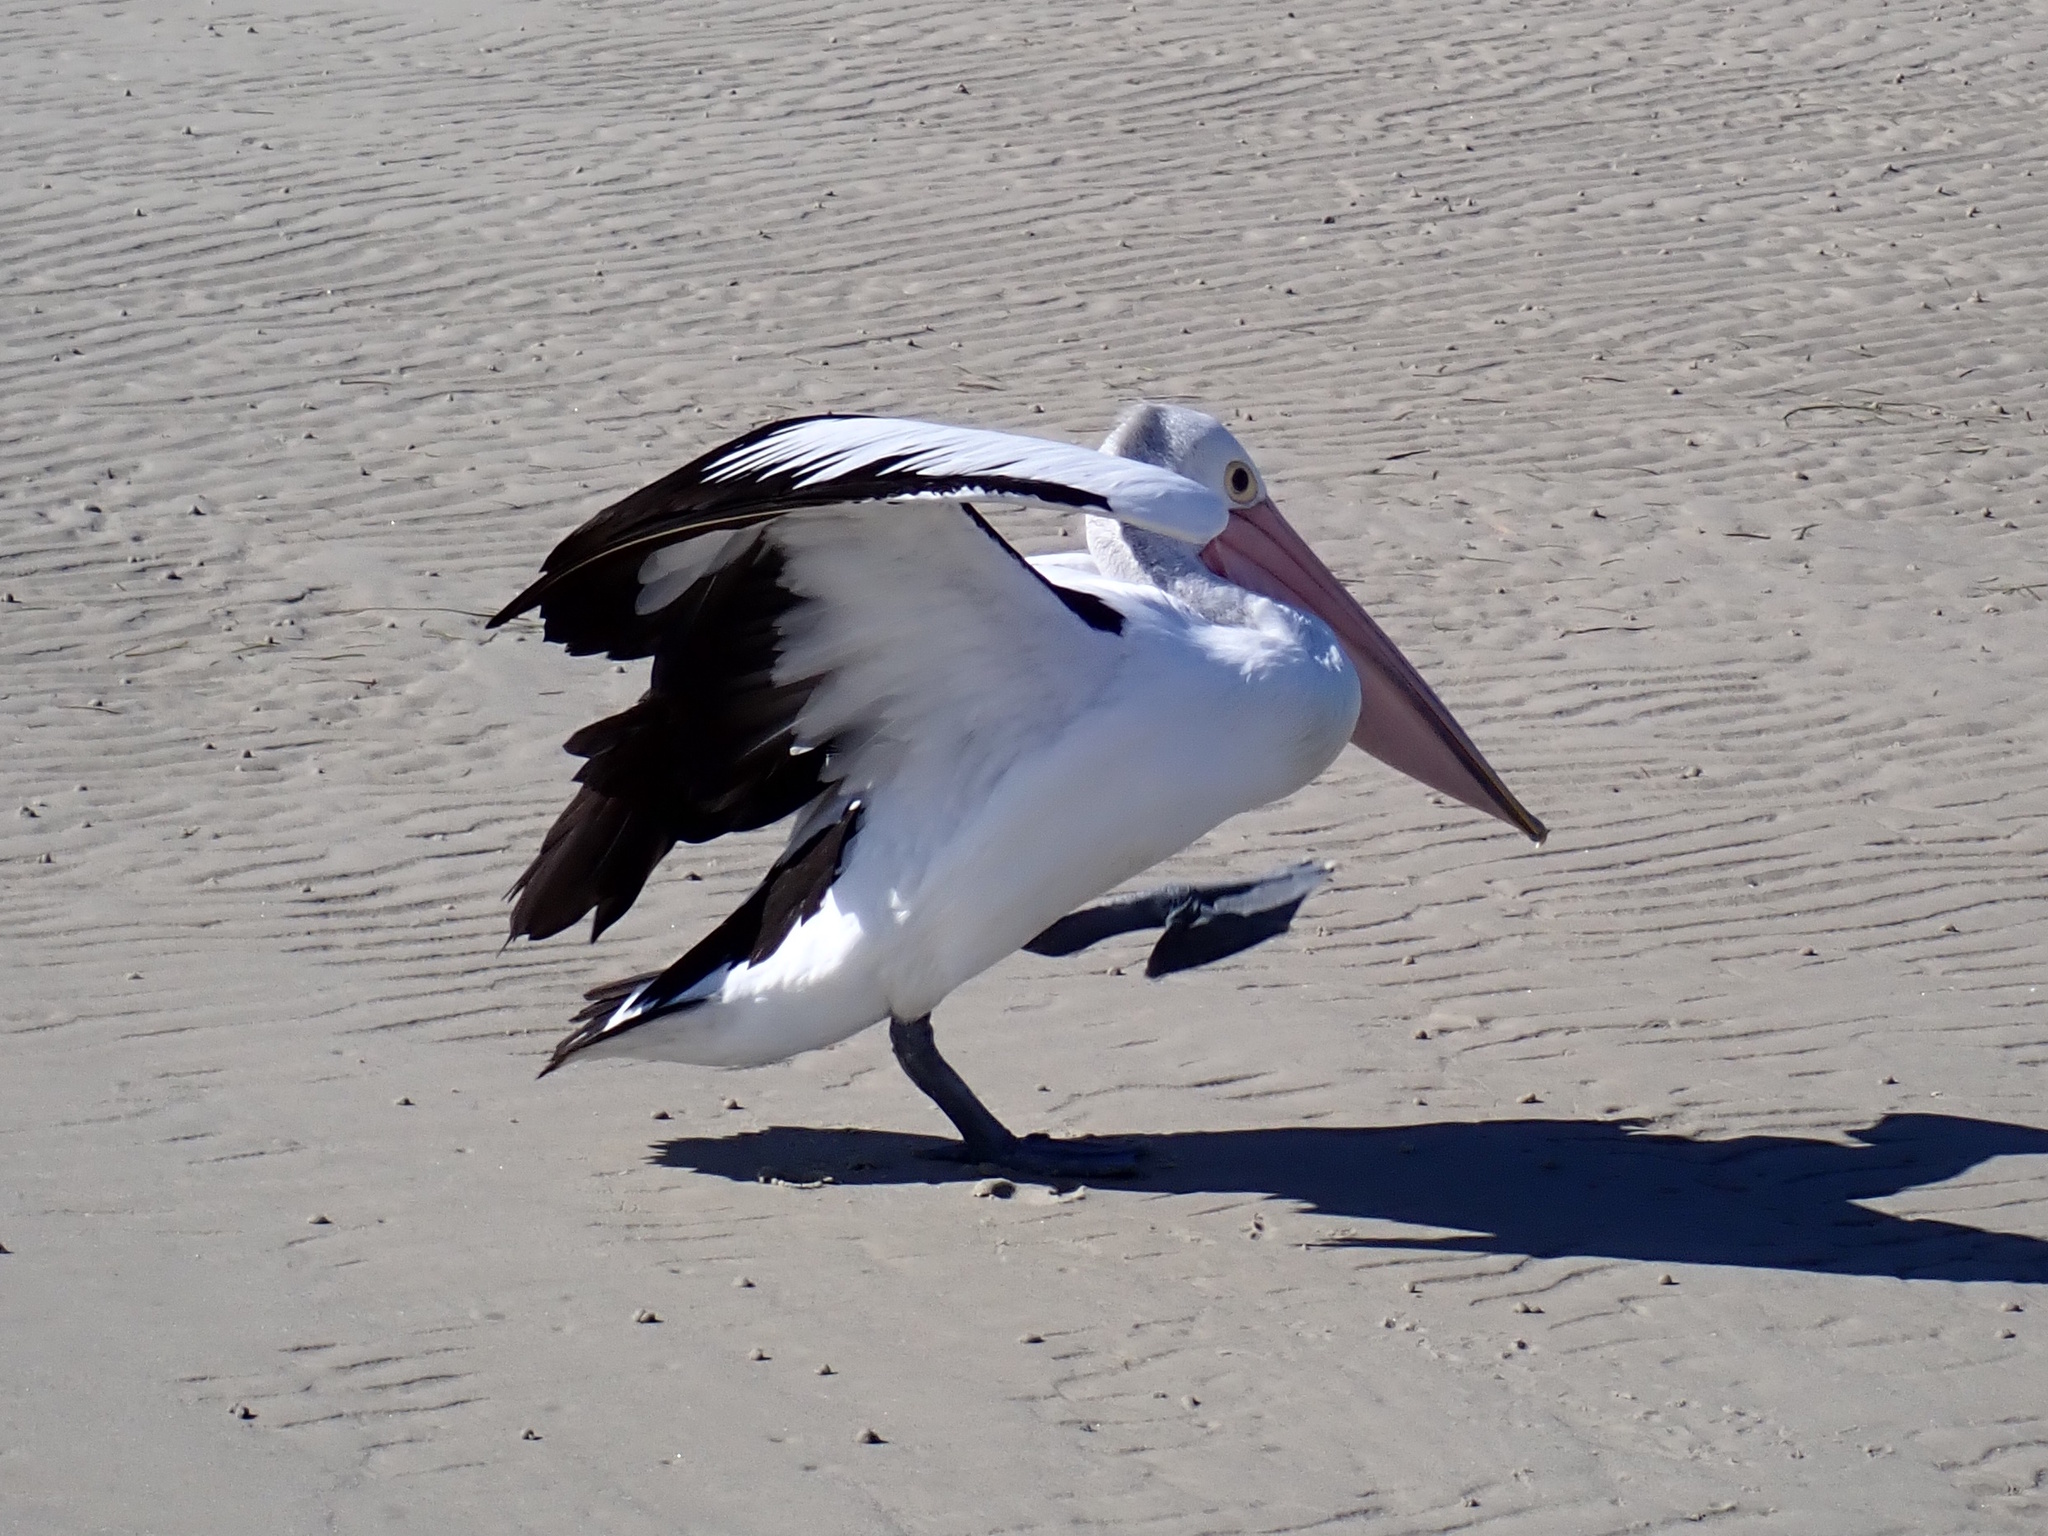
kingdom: Animalia
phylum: Chordata
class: Aves
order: Pelecaniformes
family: Pelecanidae
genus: Pelecanus
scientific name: Pelecanus conspicillatus
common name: Australian pelican
